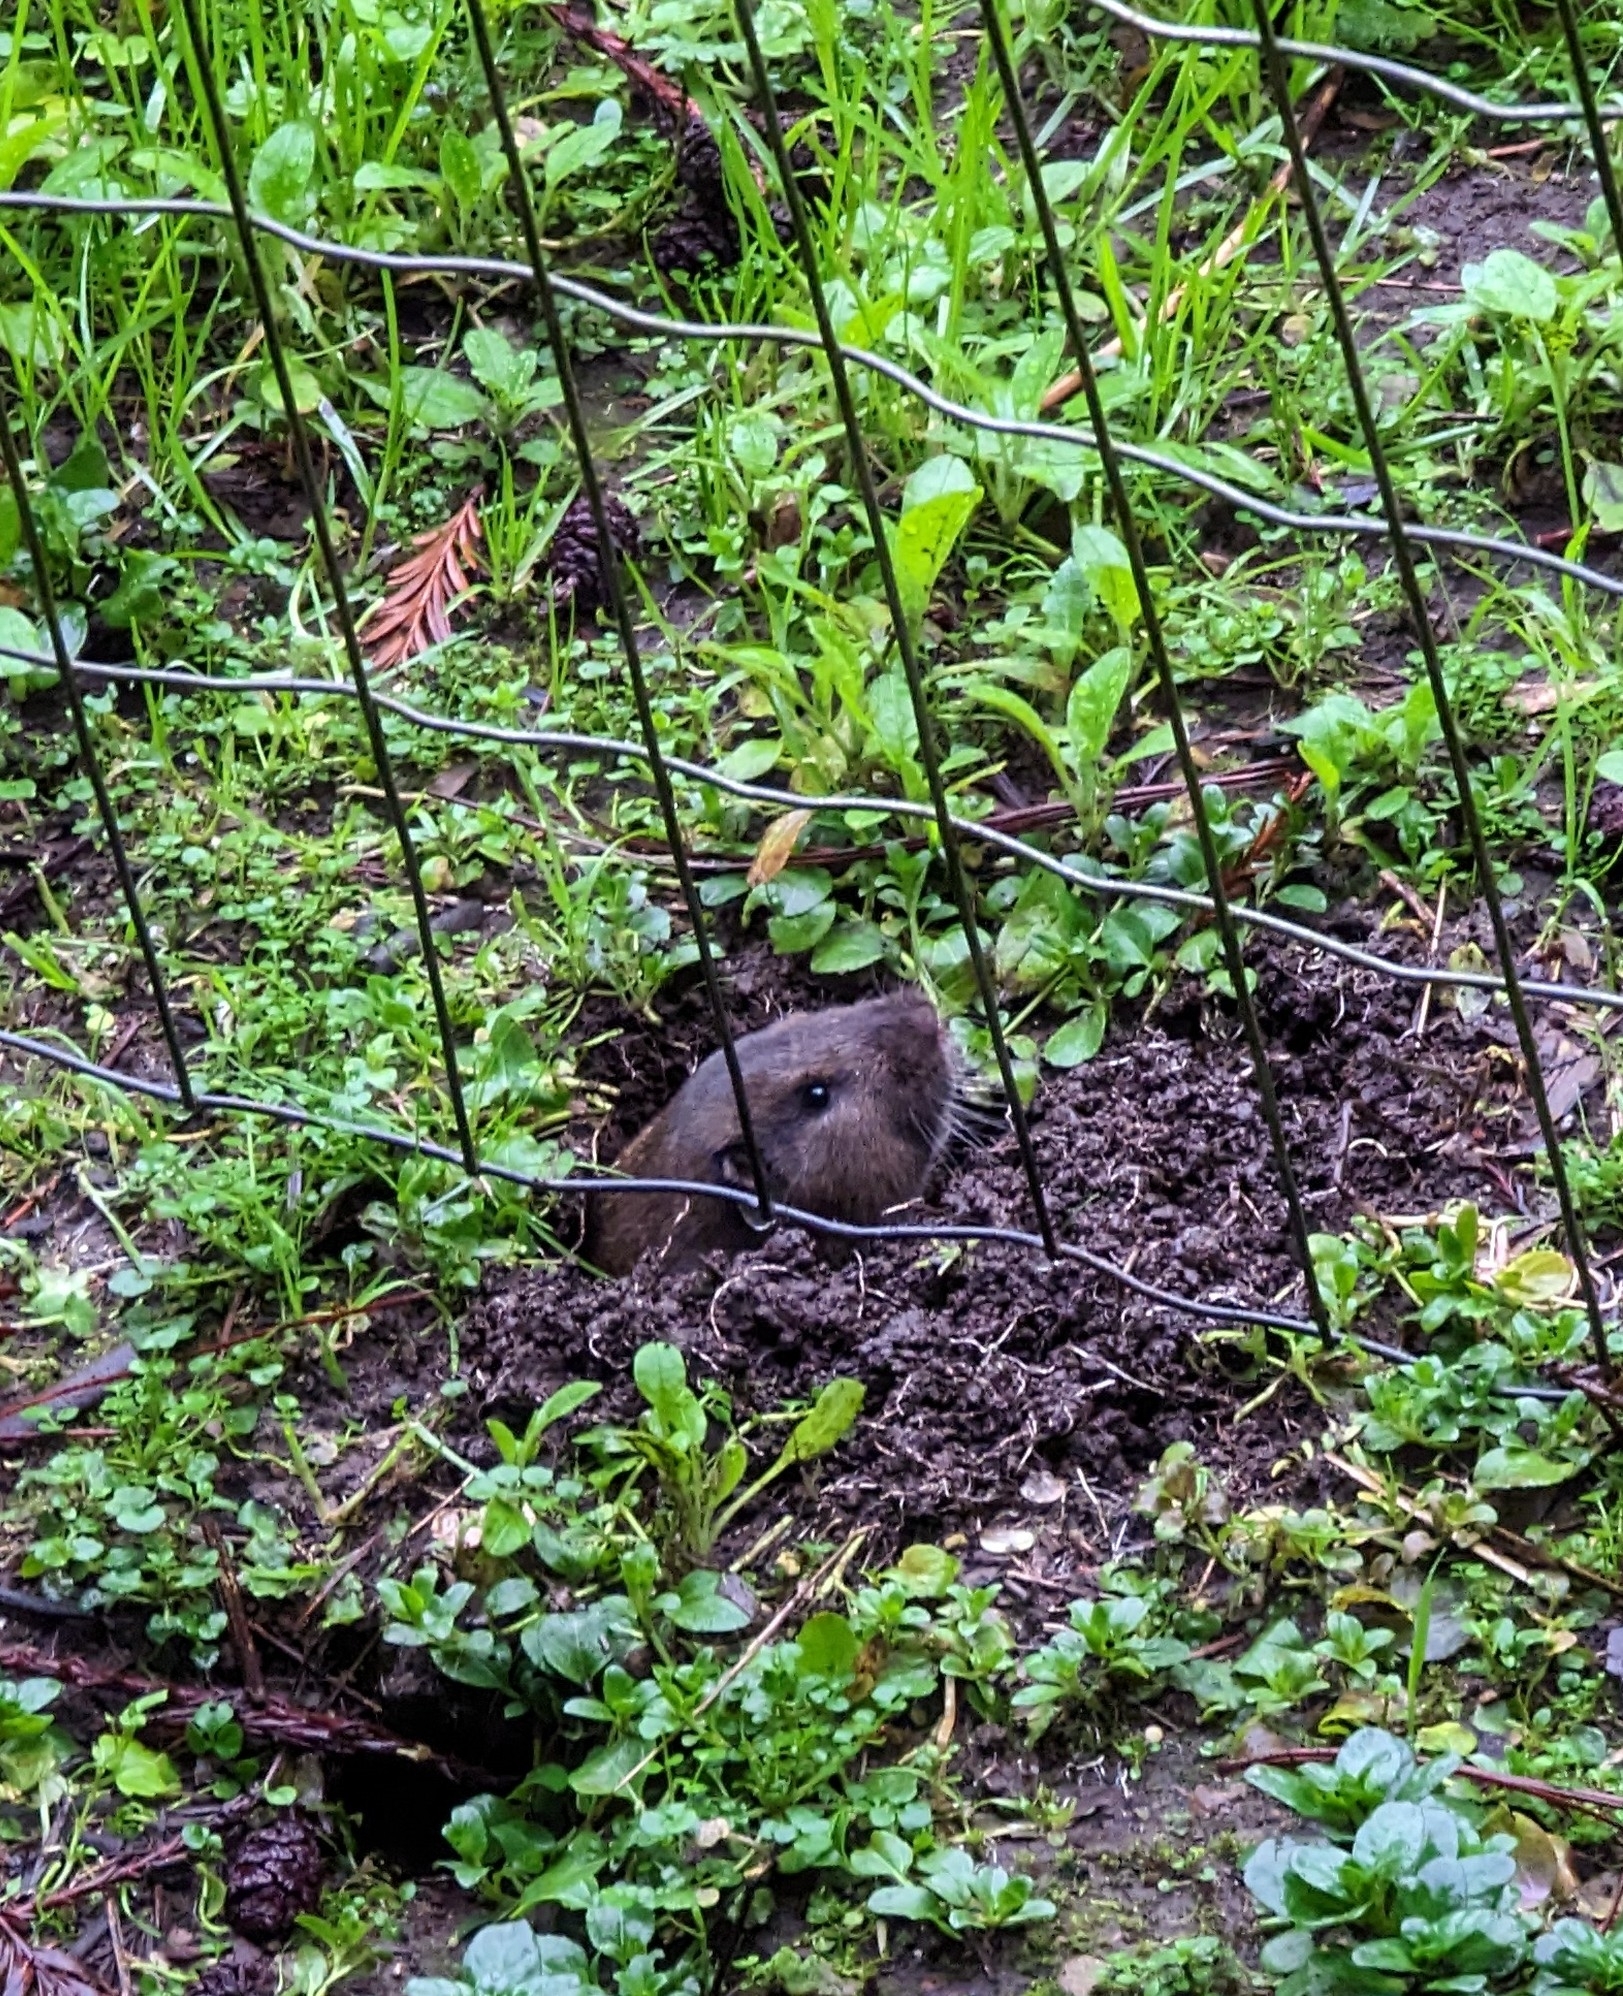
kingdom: Animalia
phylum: Chordata
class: Mammalia
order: Rodentia
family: Geomyidae
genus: Thomomys
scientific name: Thomomys bottae
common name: Botta's pocket gopher
